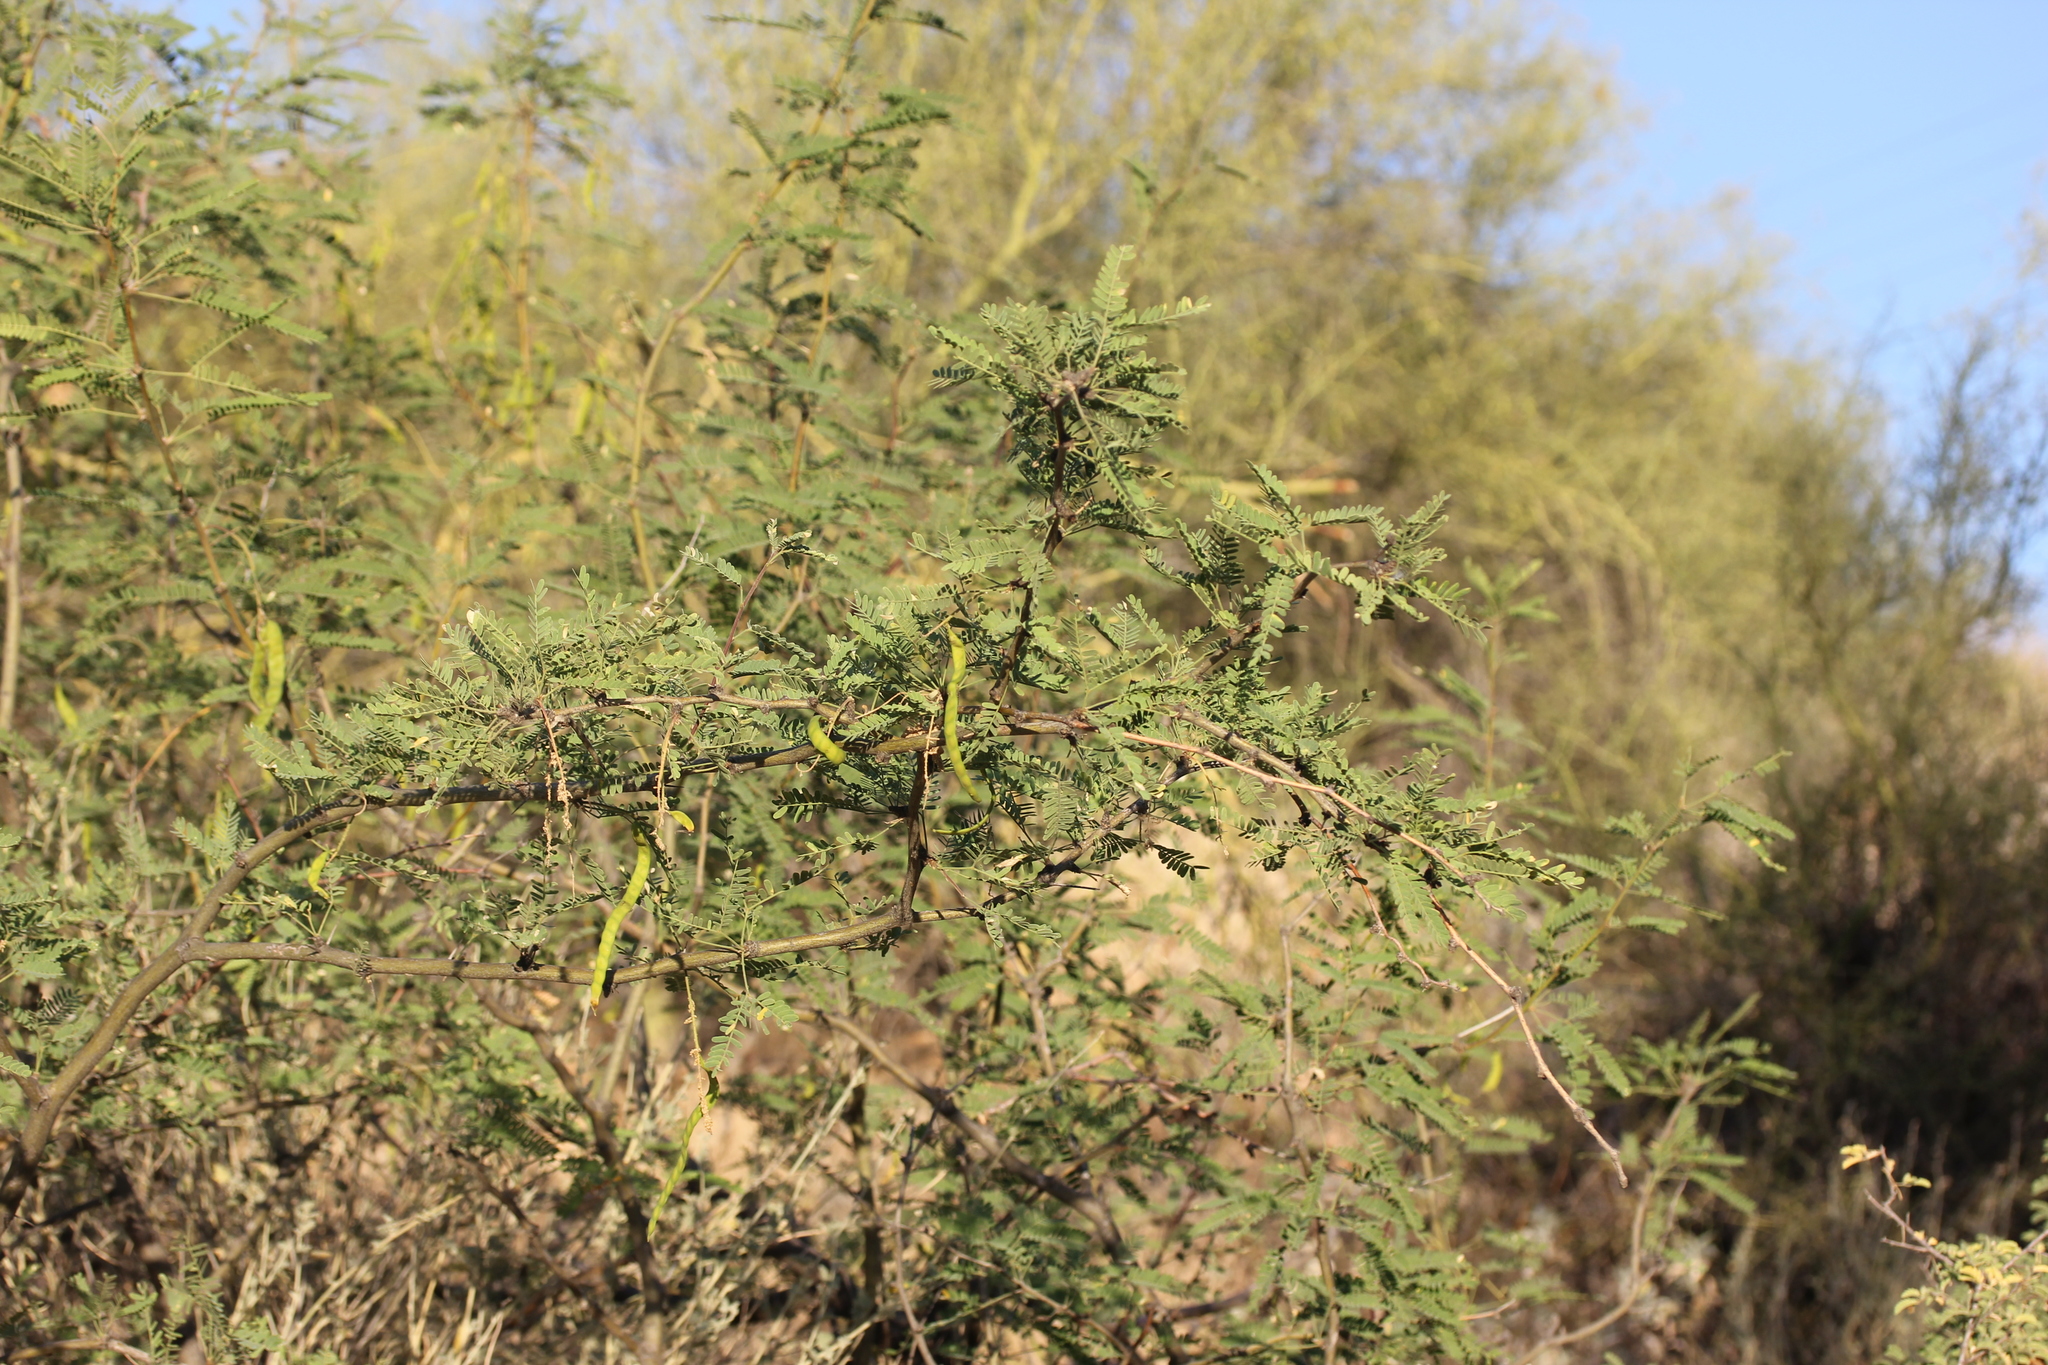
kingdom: Plantae
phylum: Tracheophyta
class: Magnoliopsida
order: Fabales
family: Fabaceae
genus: Prosopis
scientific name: Prosopis velutina
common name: Velvet mesquite
